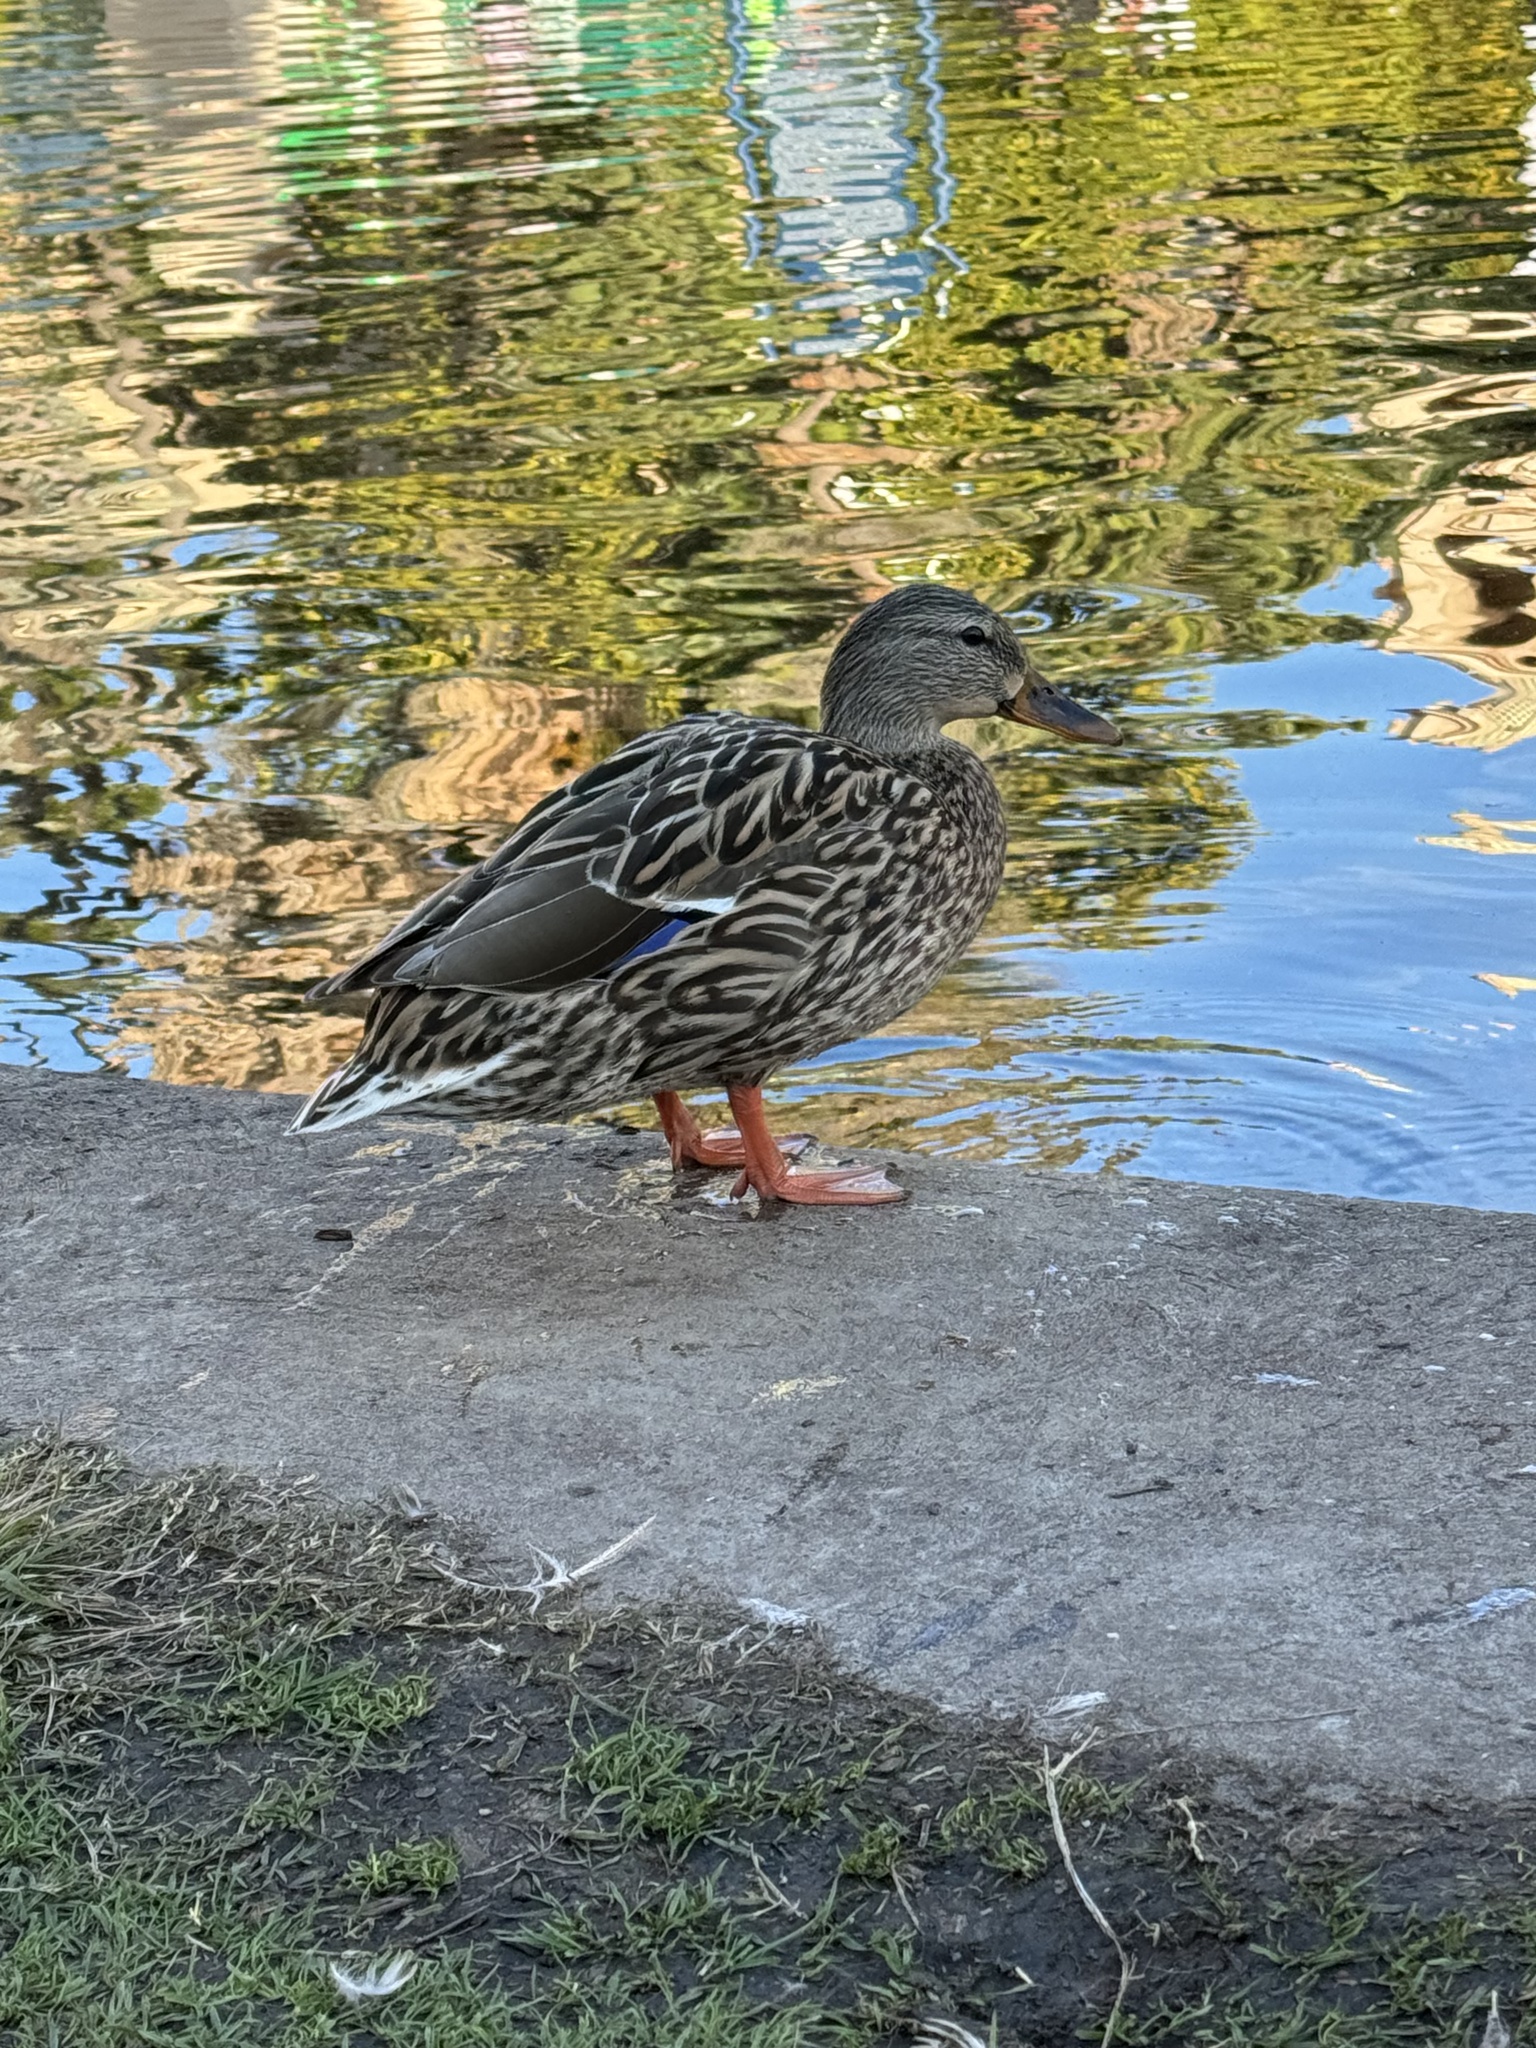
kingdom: Animalia
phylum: Chordata
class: Aves
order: Anseriformes
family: Anatidae
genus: Anas
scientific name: Anas platyrhynchos
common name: Mallard
